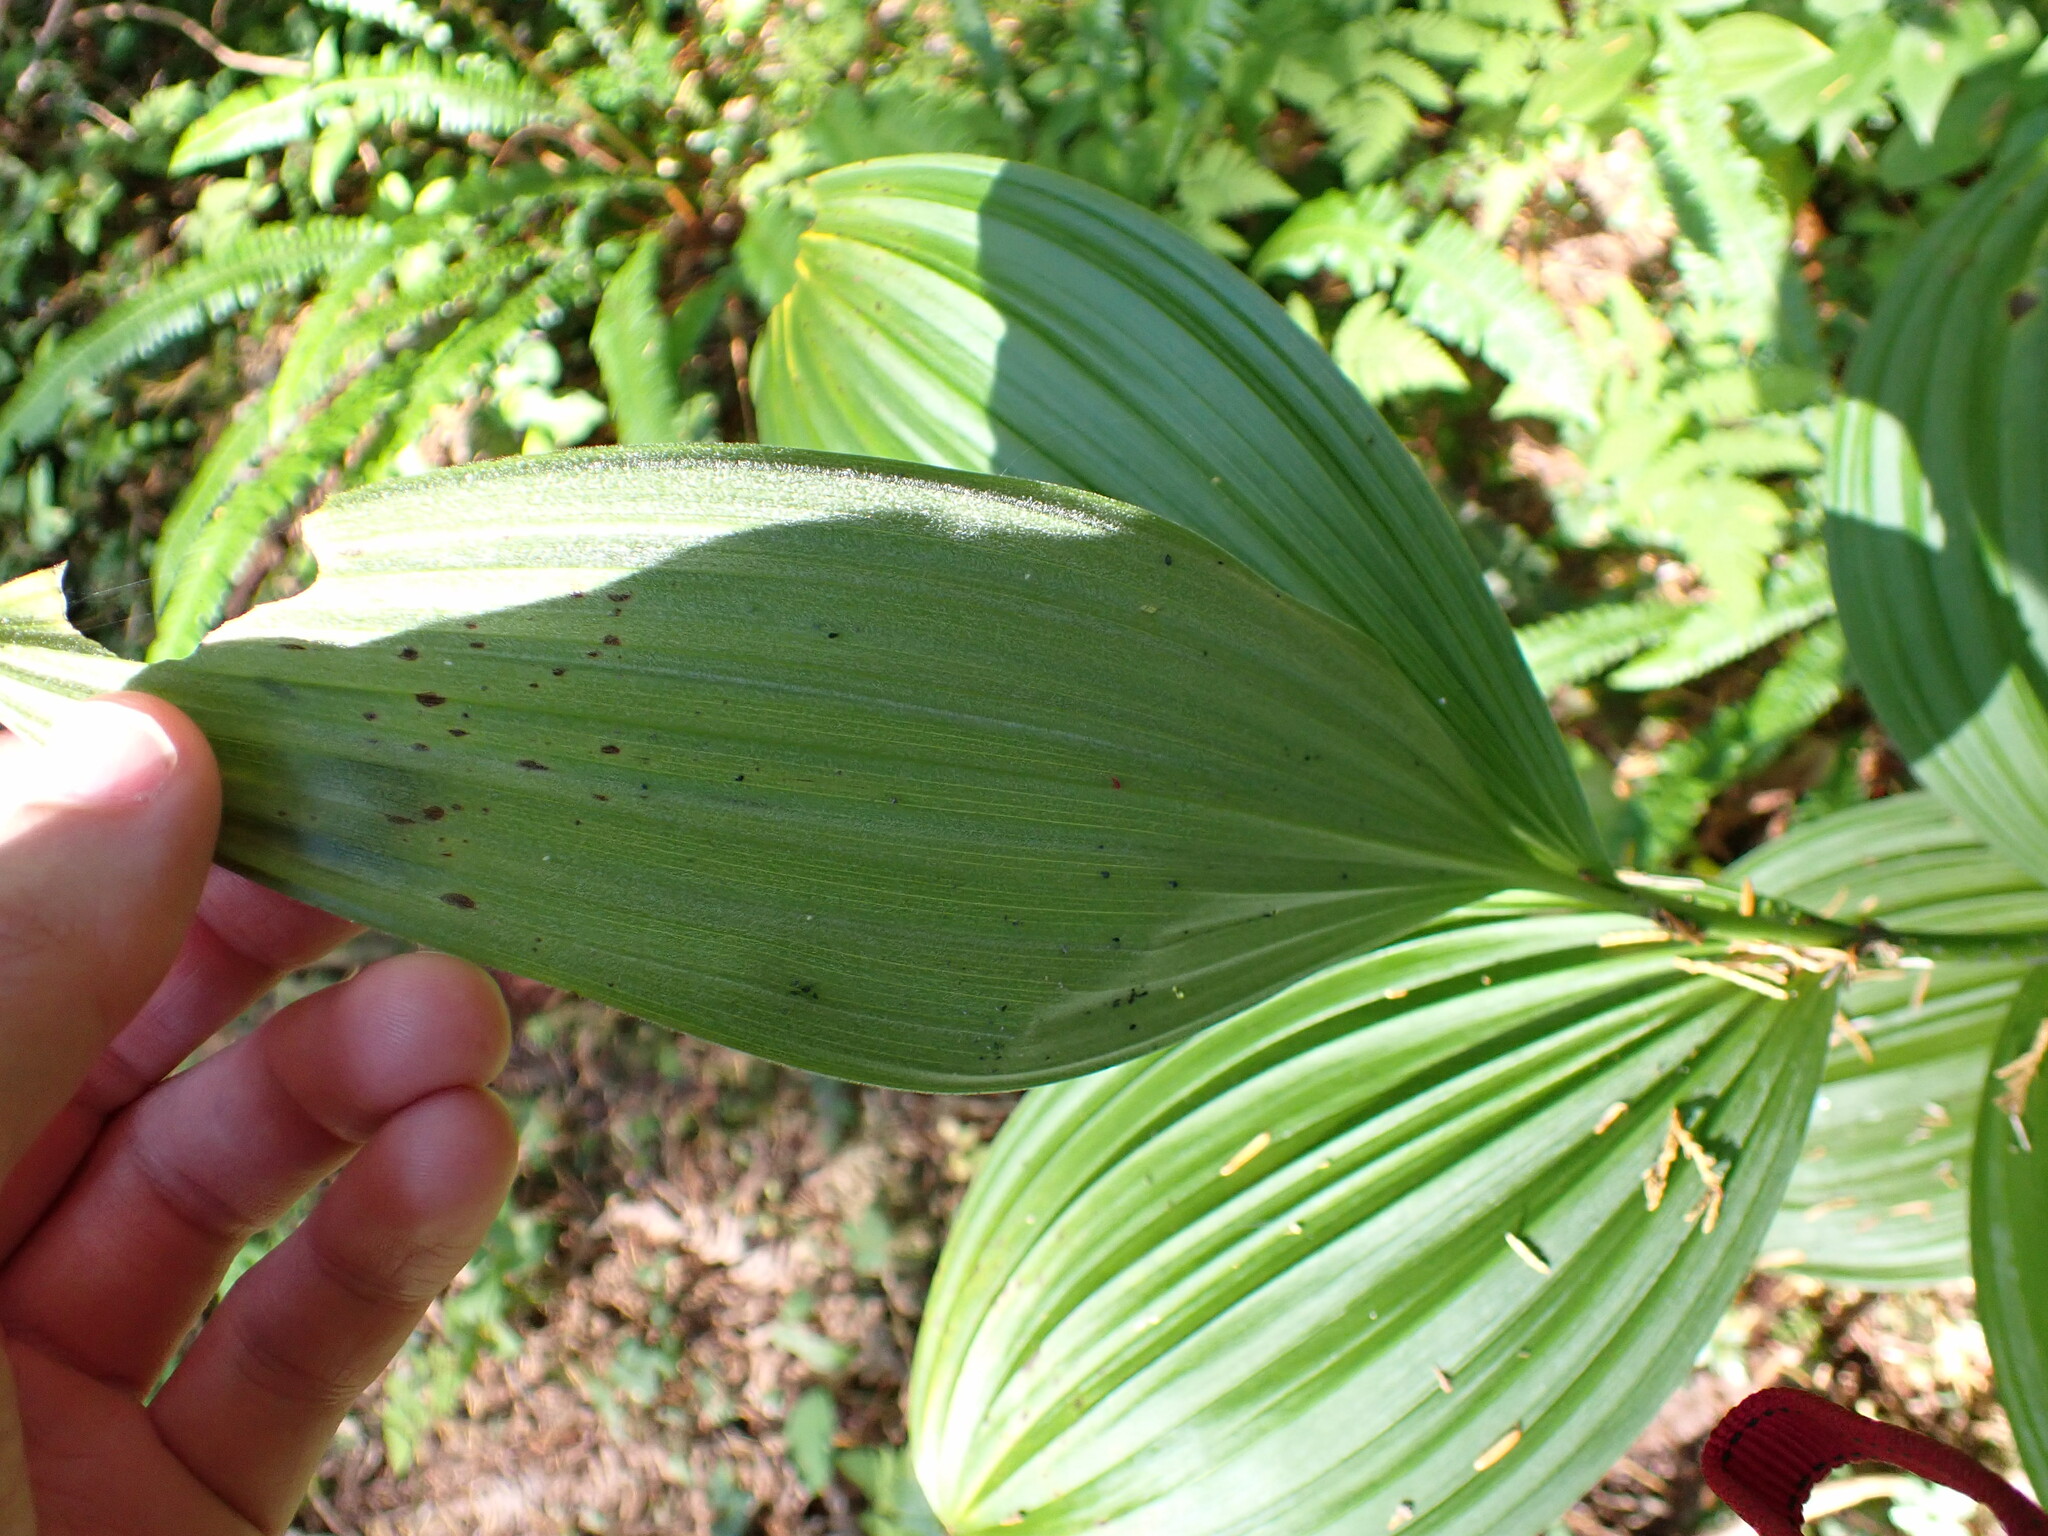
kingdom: Plantae
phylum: Tracheophyta
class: Liliopsida
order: Liliales
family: Melanthiaceae
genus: Veratrum
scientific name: Veratrum viride
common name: American false hellebore
